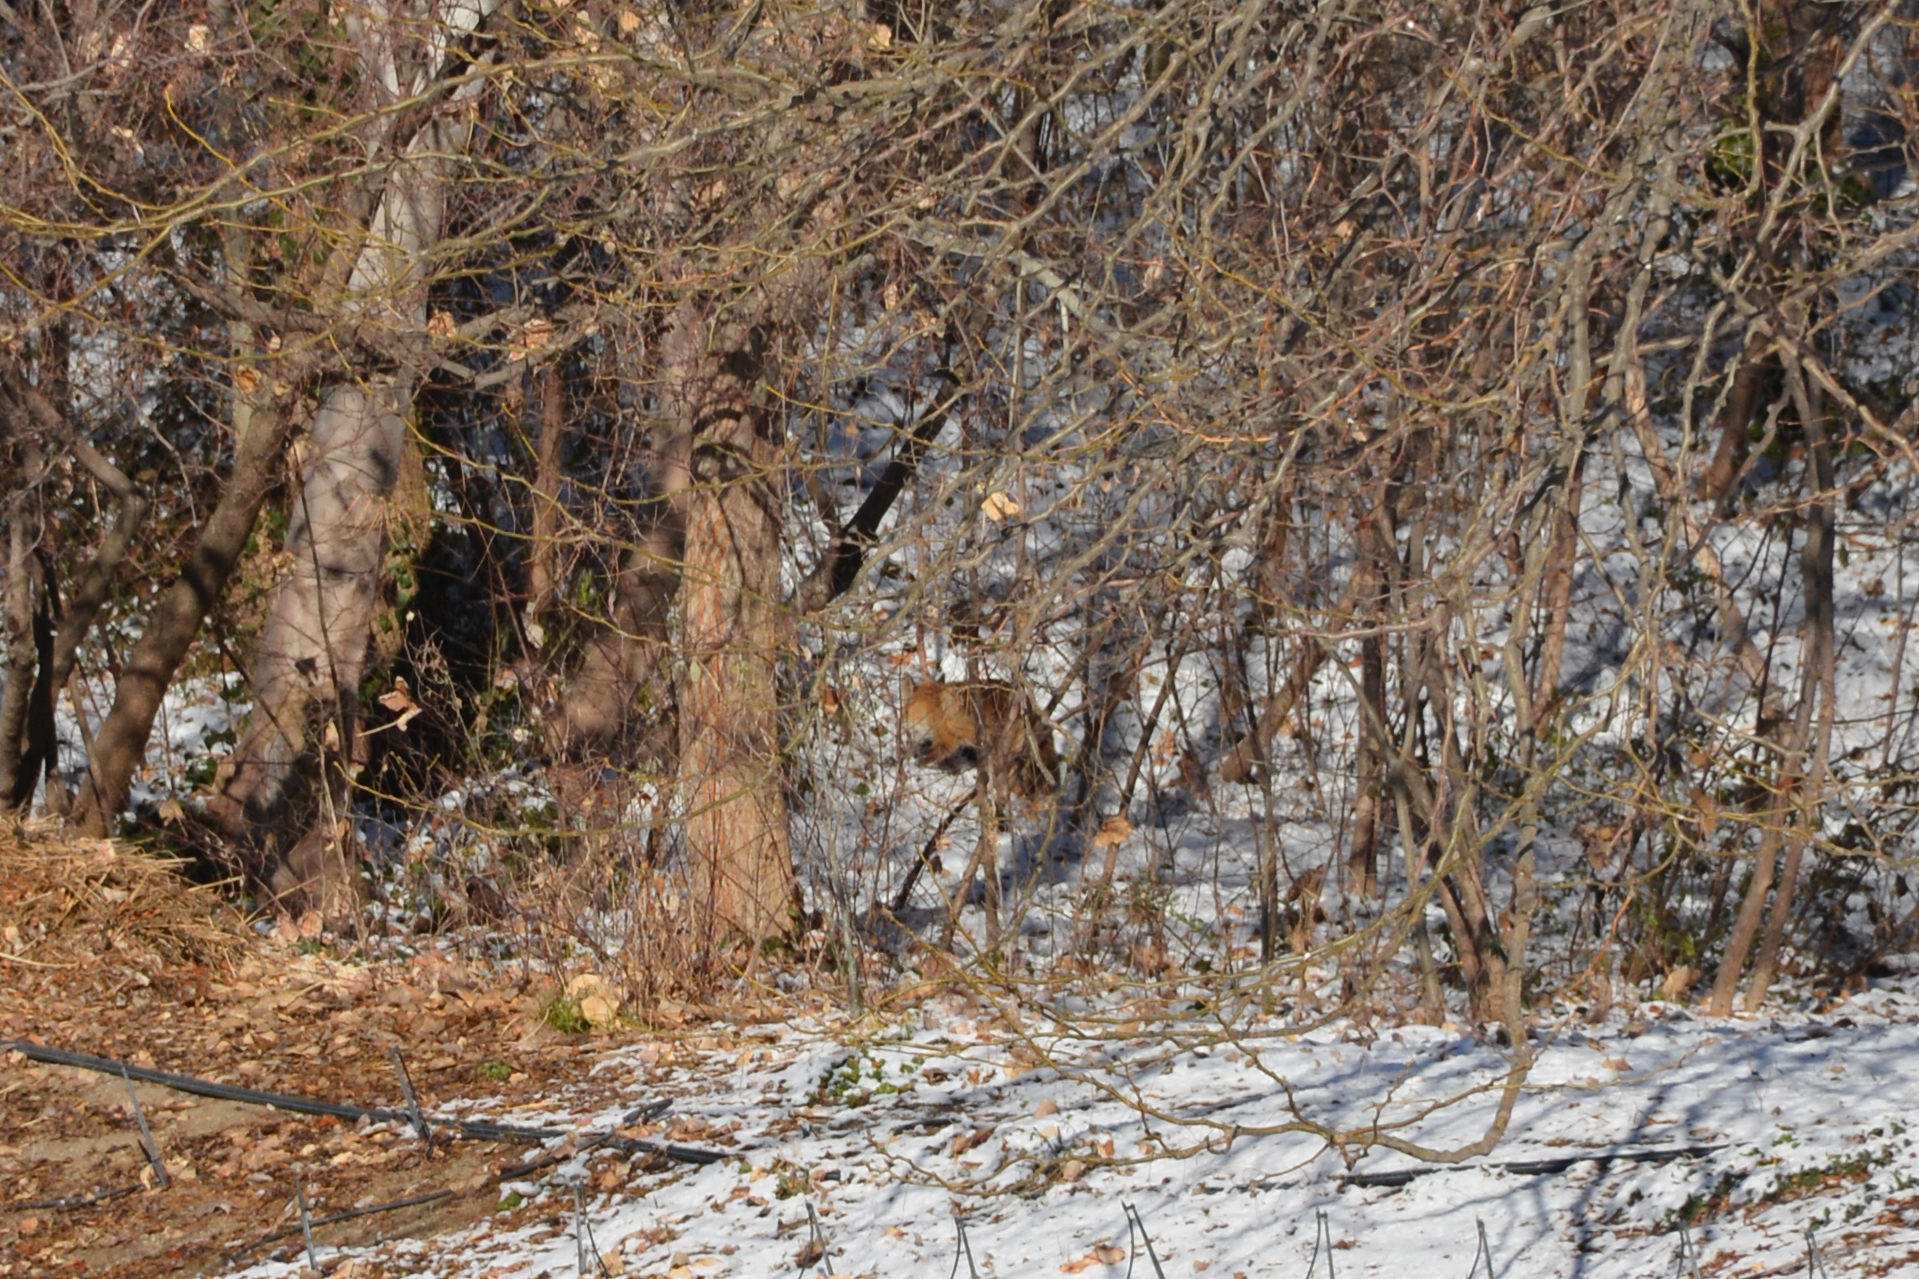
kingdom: Animalia
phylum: Chordata
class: Mammalia
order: Carnivora
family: Canidae
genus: Vulpes
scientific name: Vulpes vulpes
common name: Red fox
